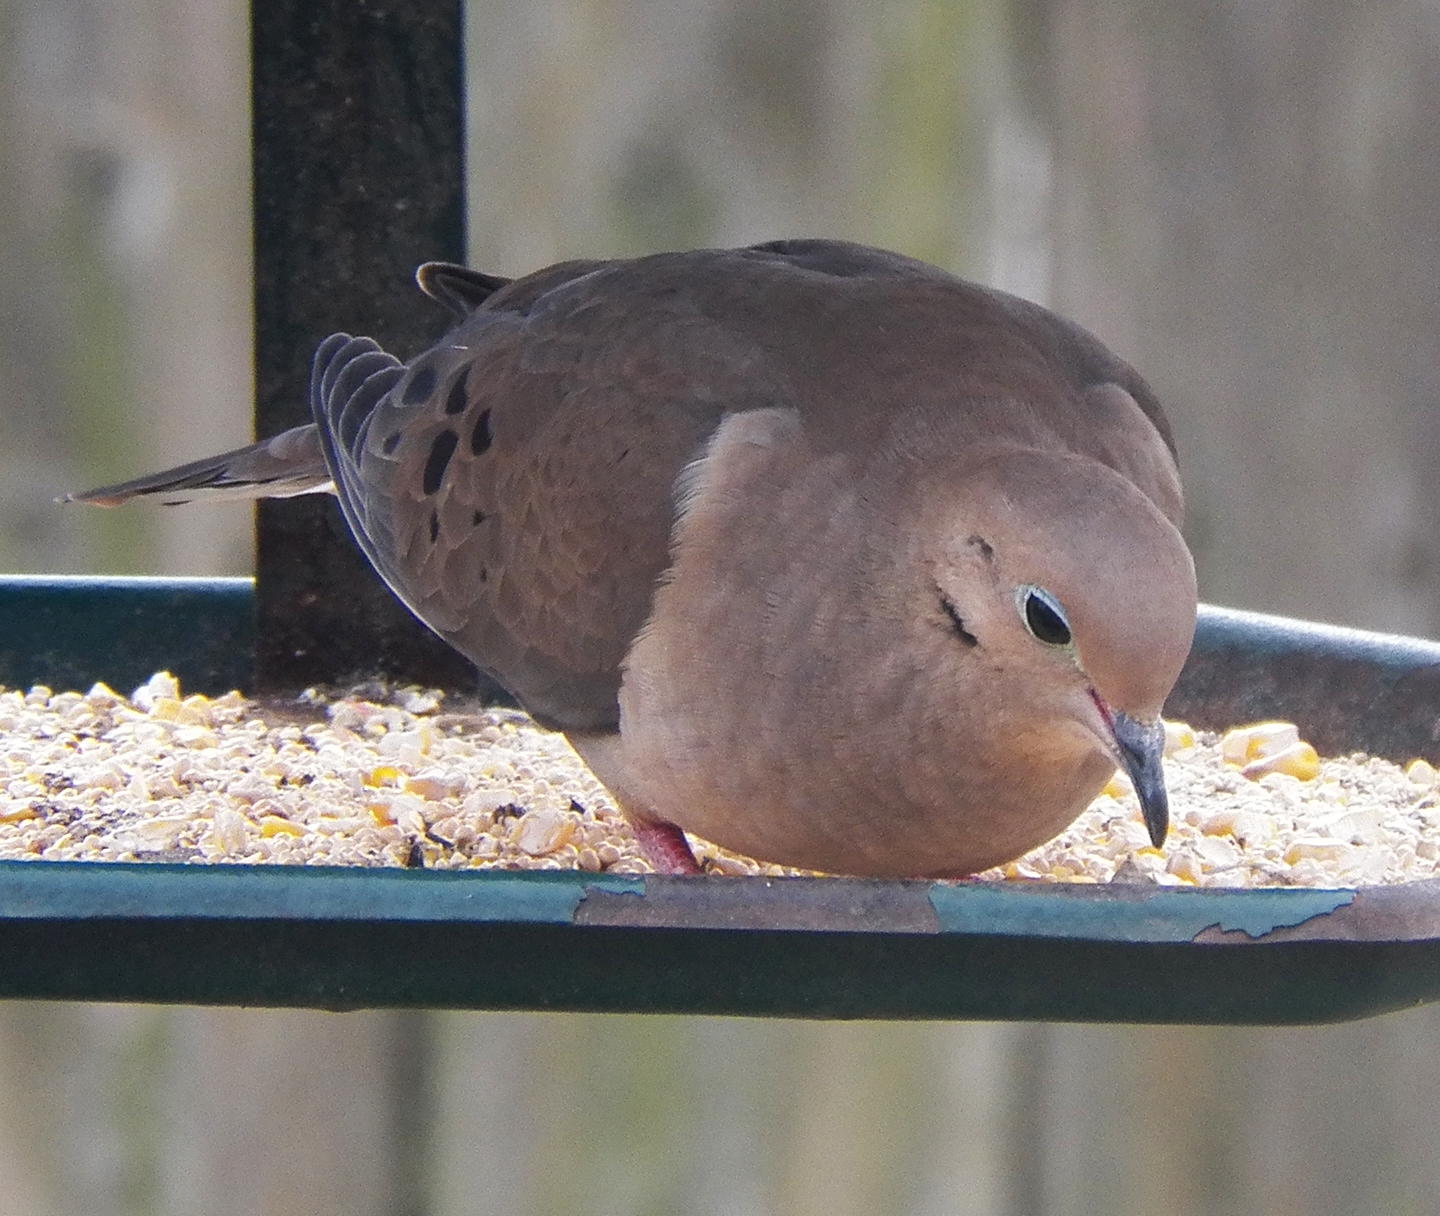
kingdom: Animalia
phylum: Chordata
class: Aves
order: Columbiformes
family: Columbidae
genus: Zenaida
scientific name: Zenaida macroura
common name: Mourning dove
